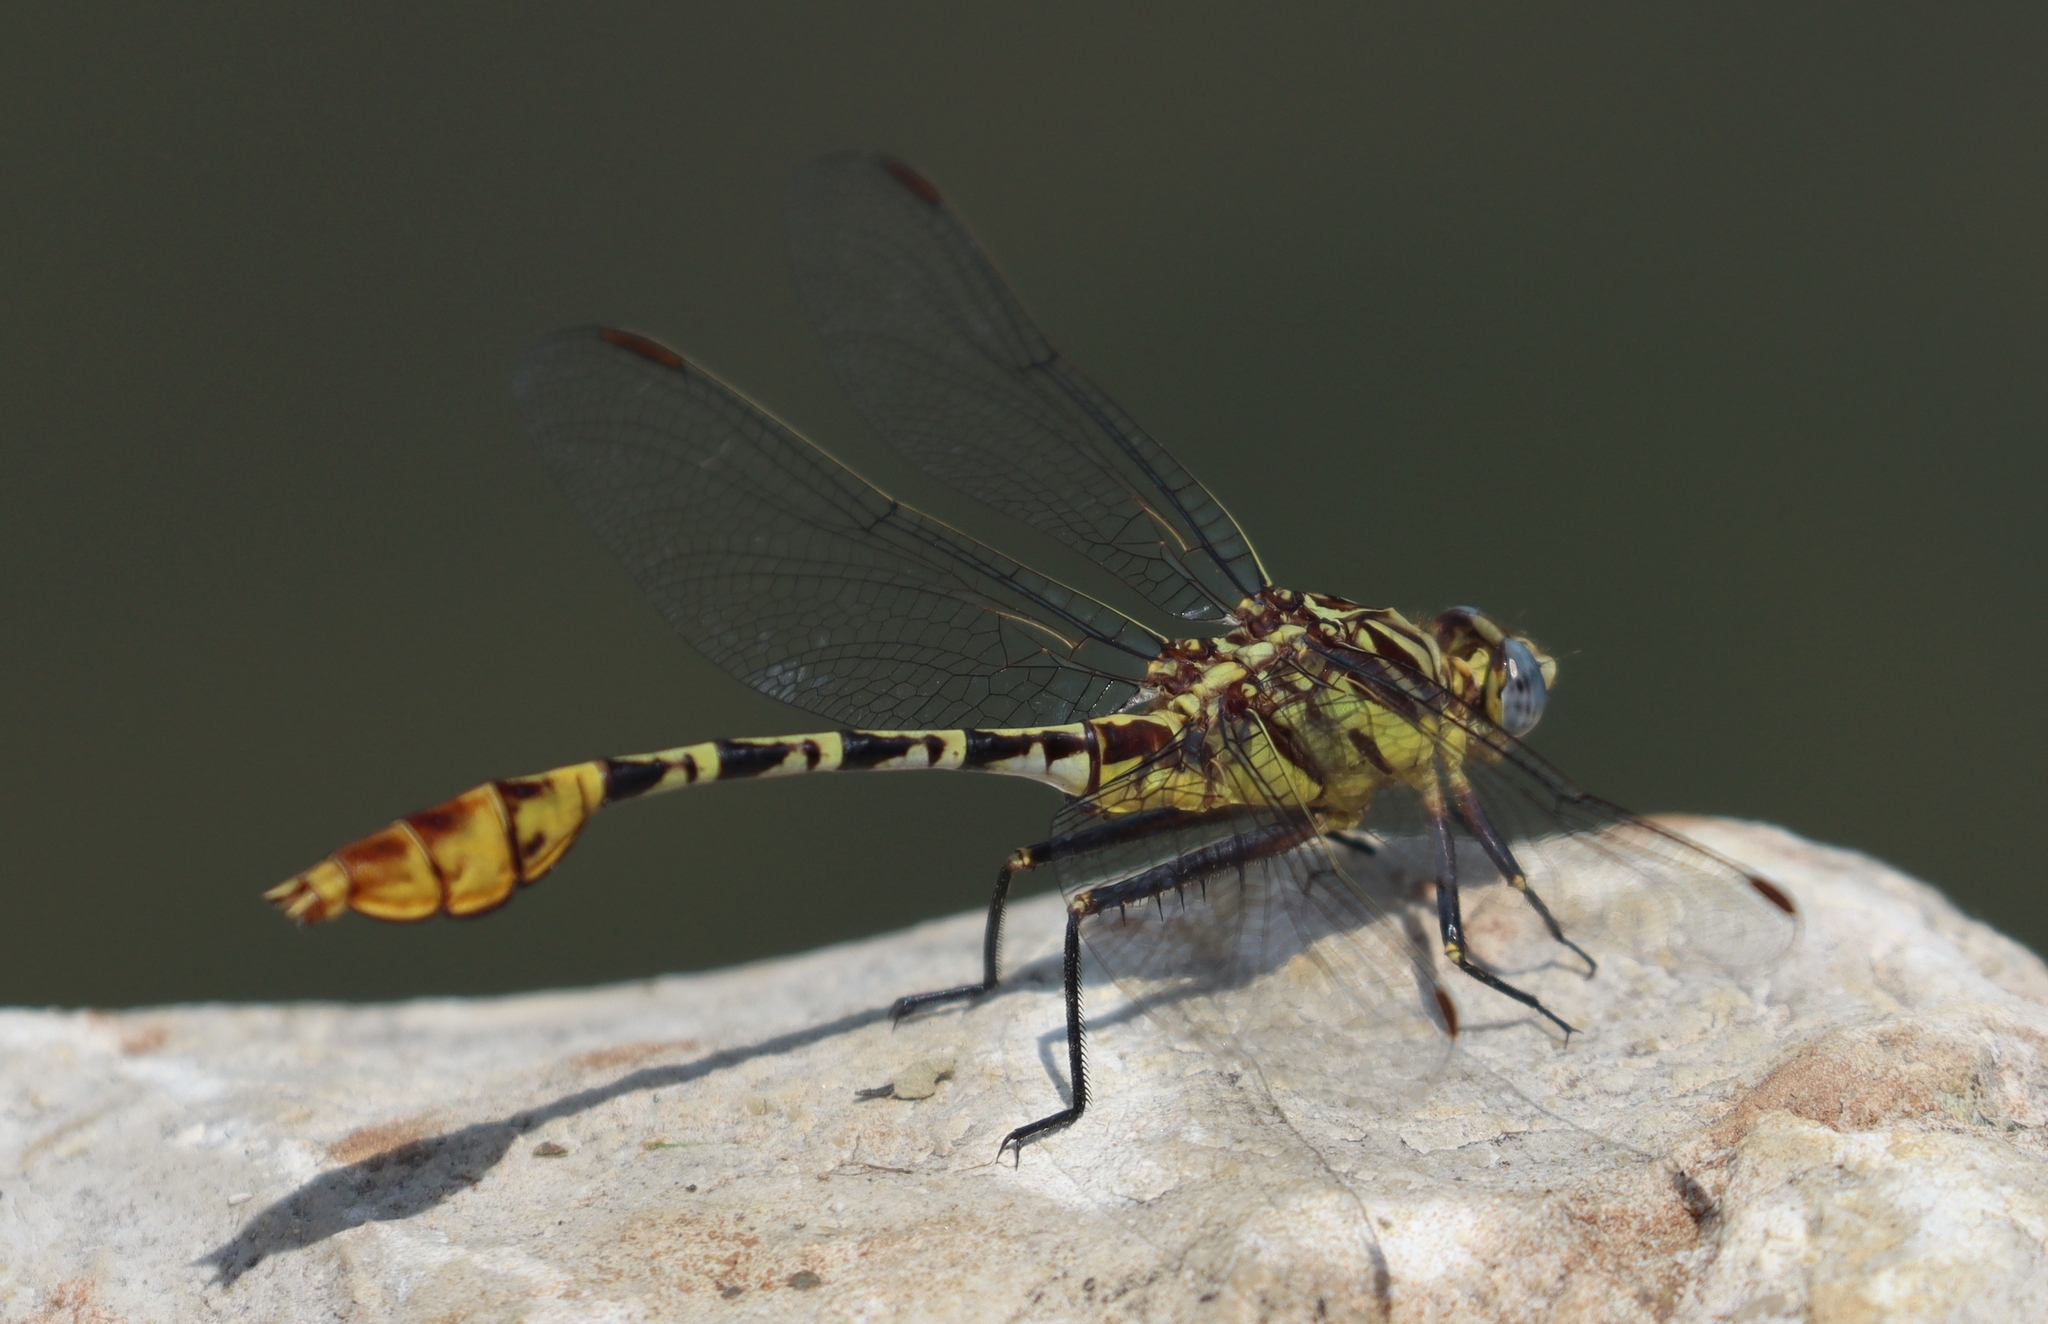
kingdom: Animalia
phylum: Arthropoda
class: Insecta
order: Odonata
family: Gomphidae
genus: Dromogomphus
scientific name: Dromogomphus spoliatus
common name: Flag-tailed spinyleg
